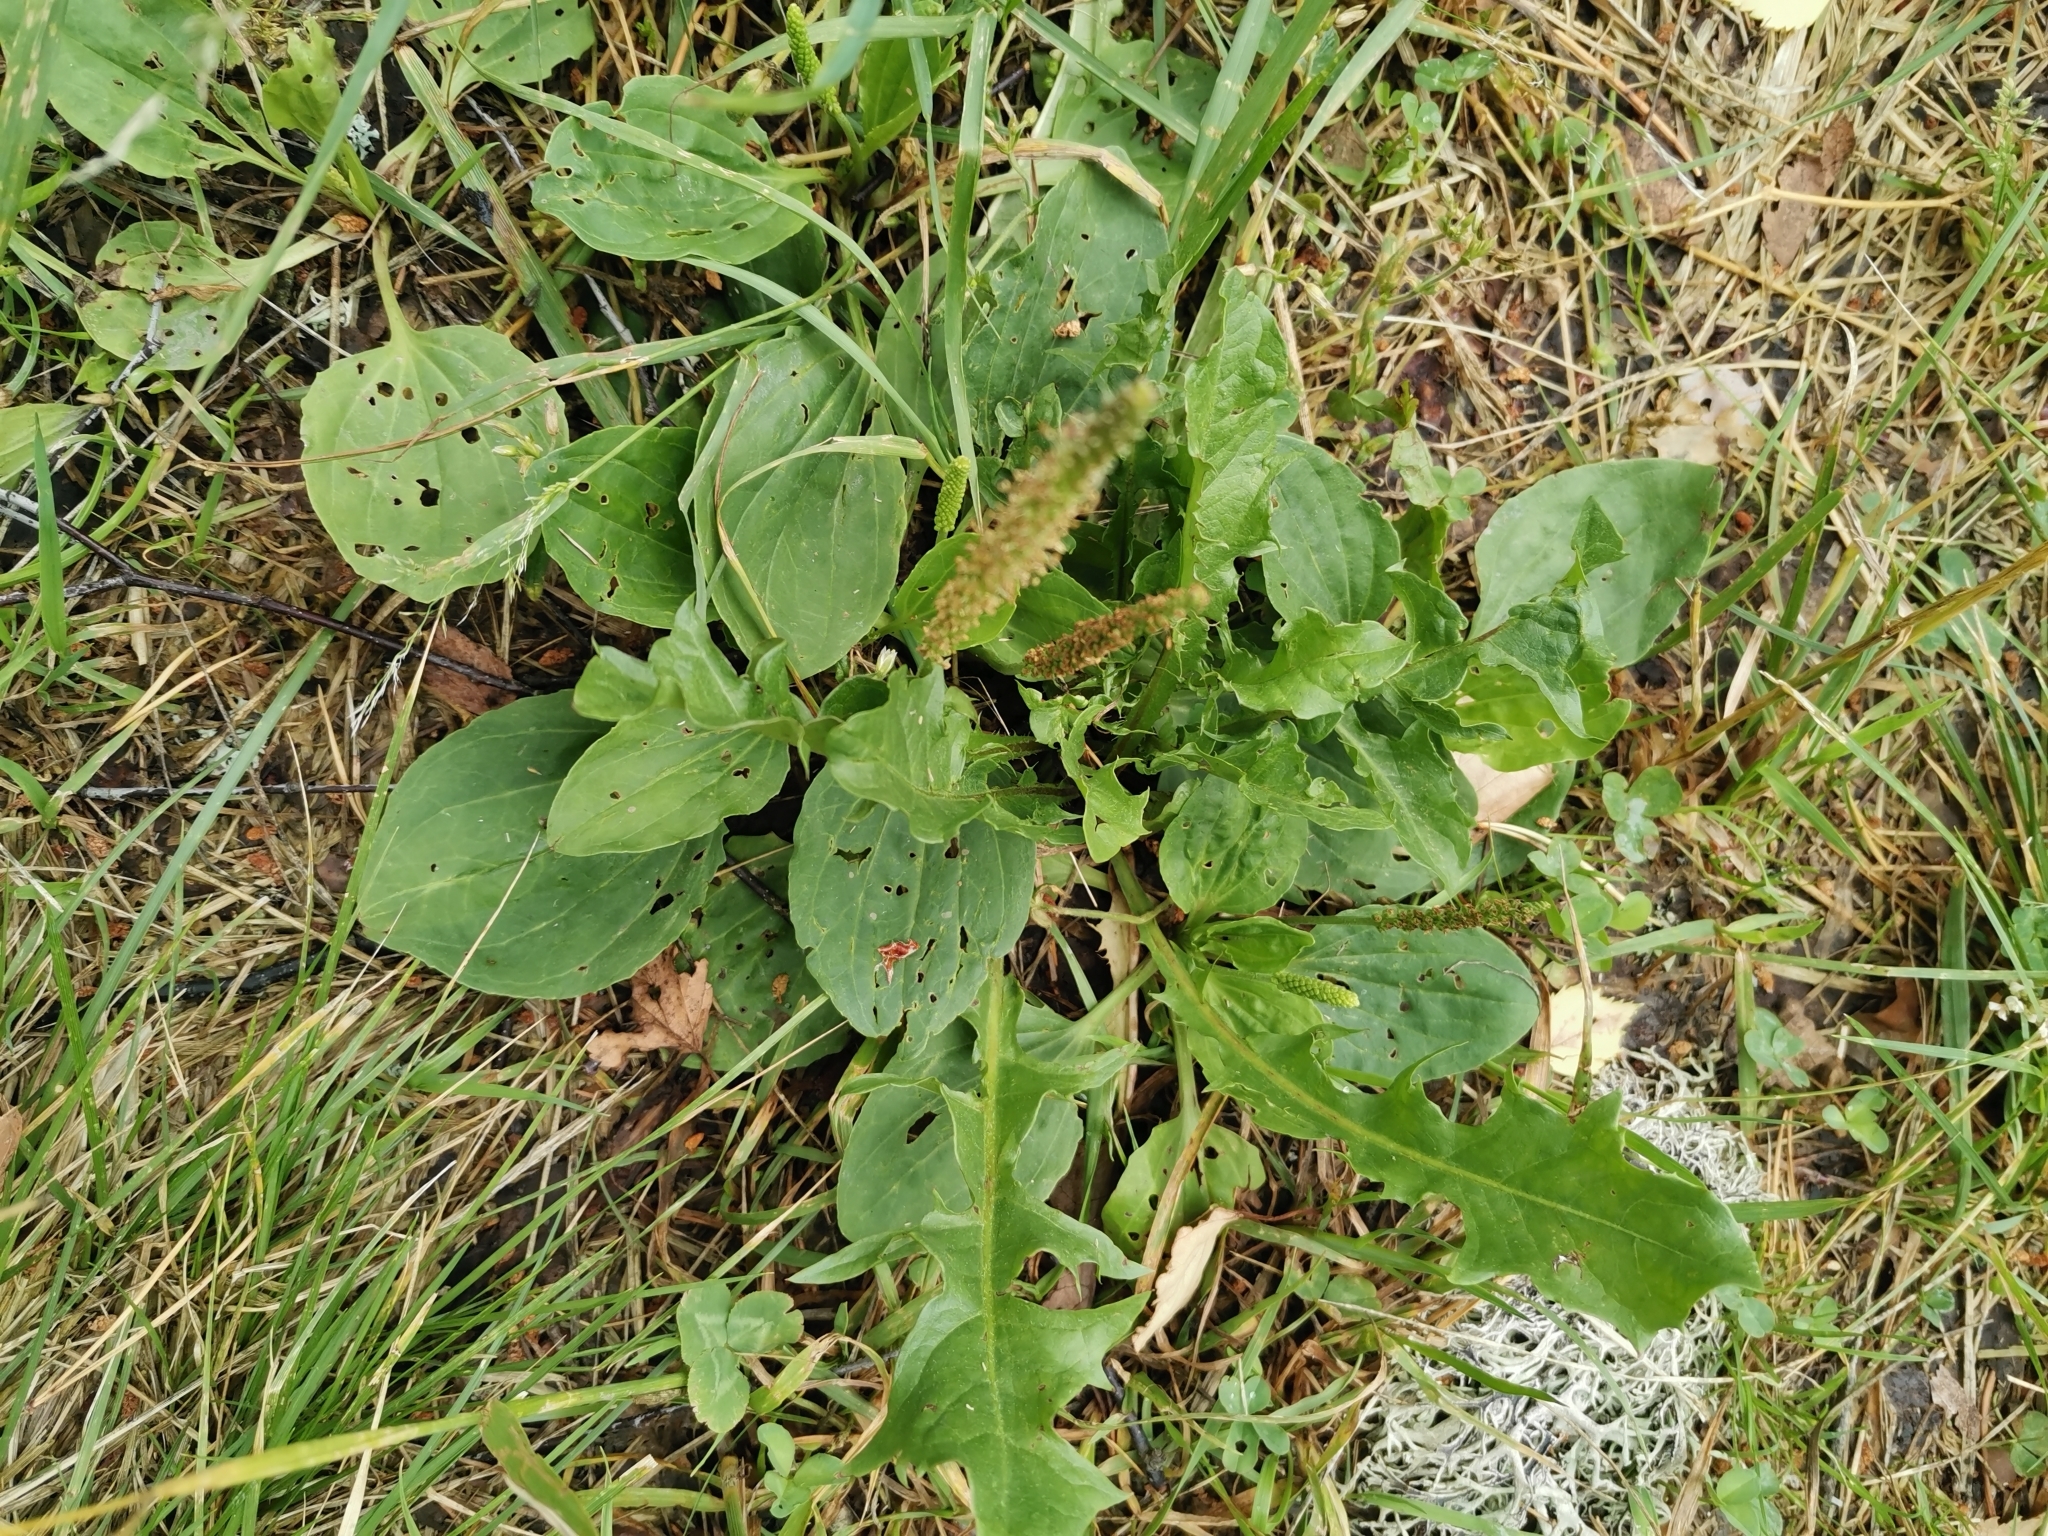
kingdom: Plantae
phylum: Tracheophyta
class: Magnoliopsida
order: Lamiales
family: Plantaginaceae
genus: Plantago
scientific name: Plantago major
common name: Common plantain
